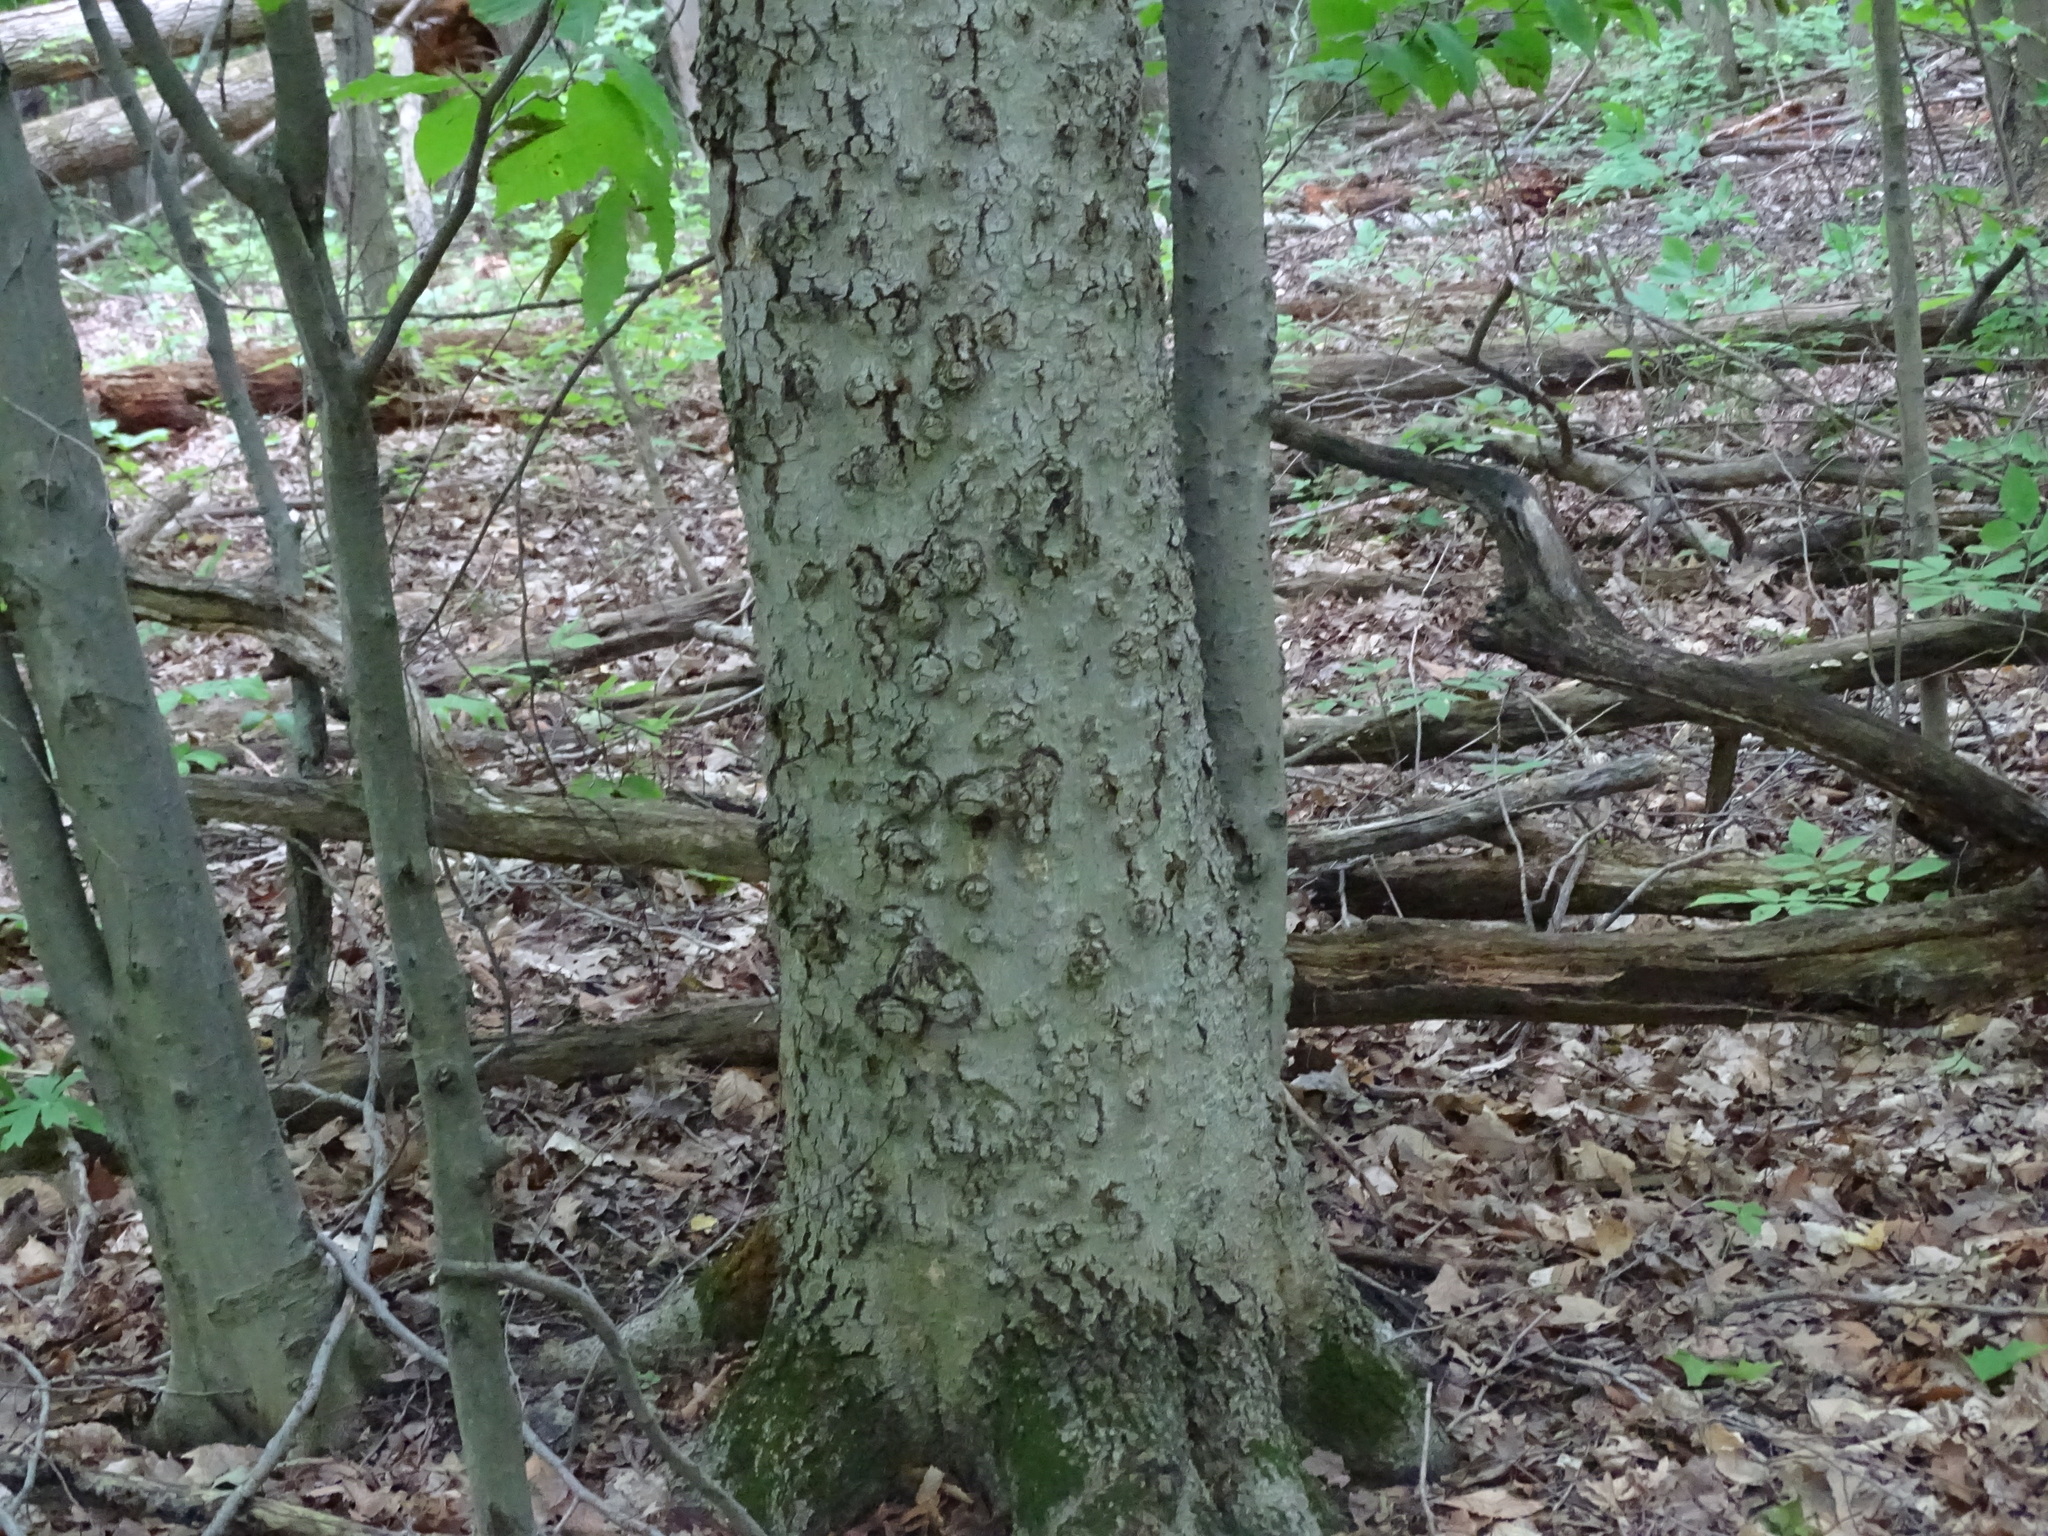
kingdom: Plantae
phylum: Tracheophyta
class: Magnoliopsida
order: Fagales
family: Fagaceae
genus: Fagus
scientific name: Fagus grandifolia
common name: American beech
